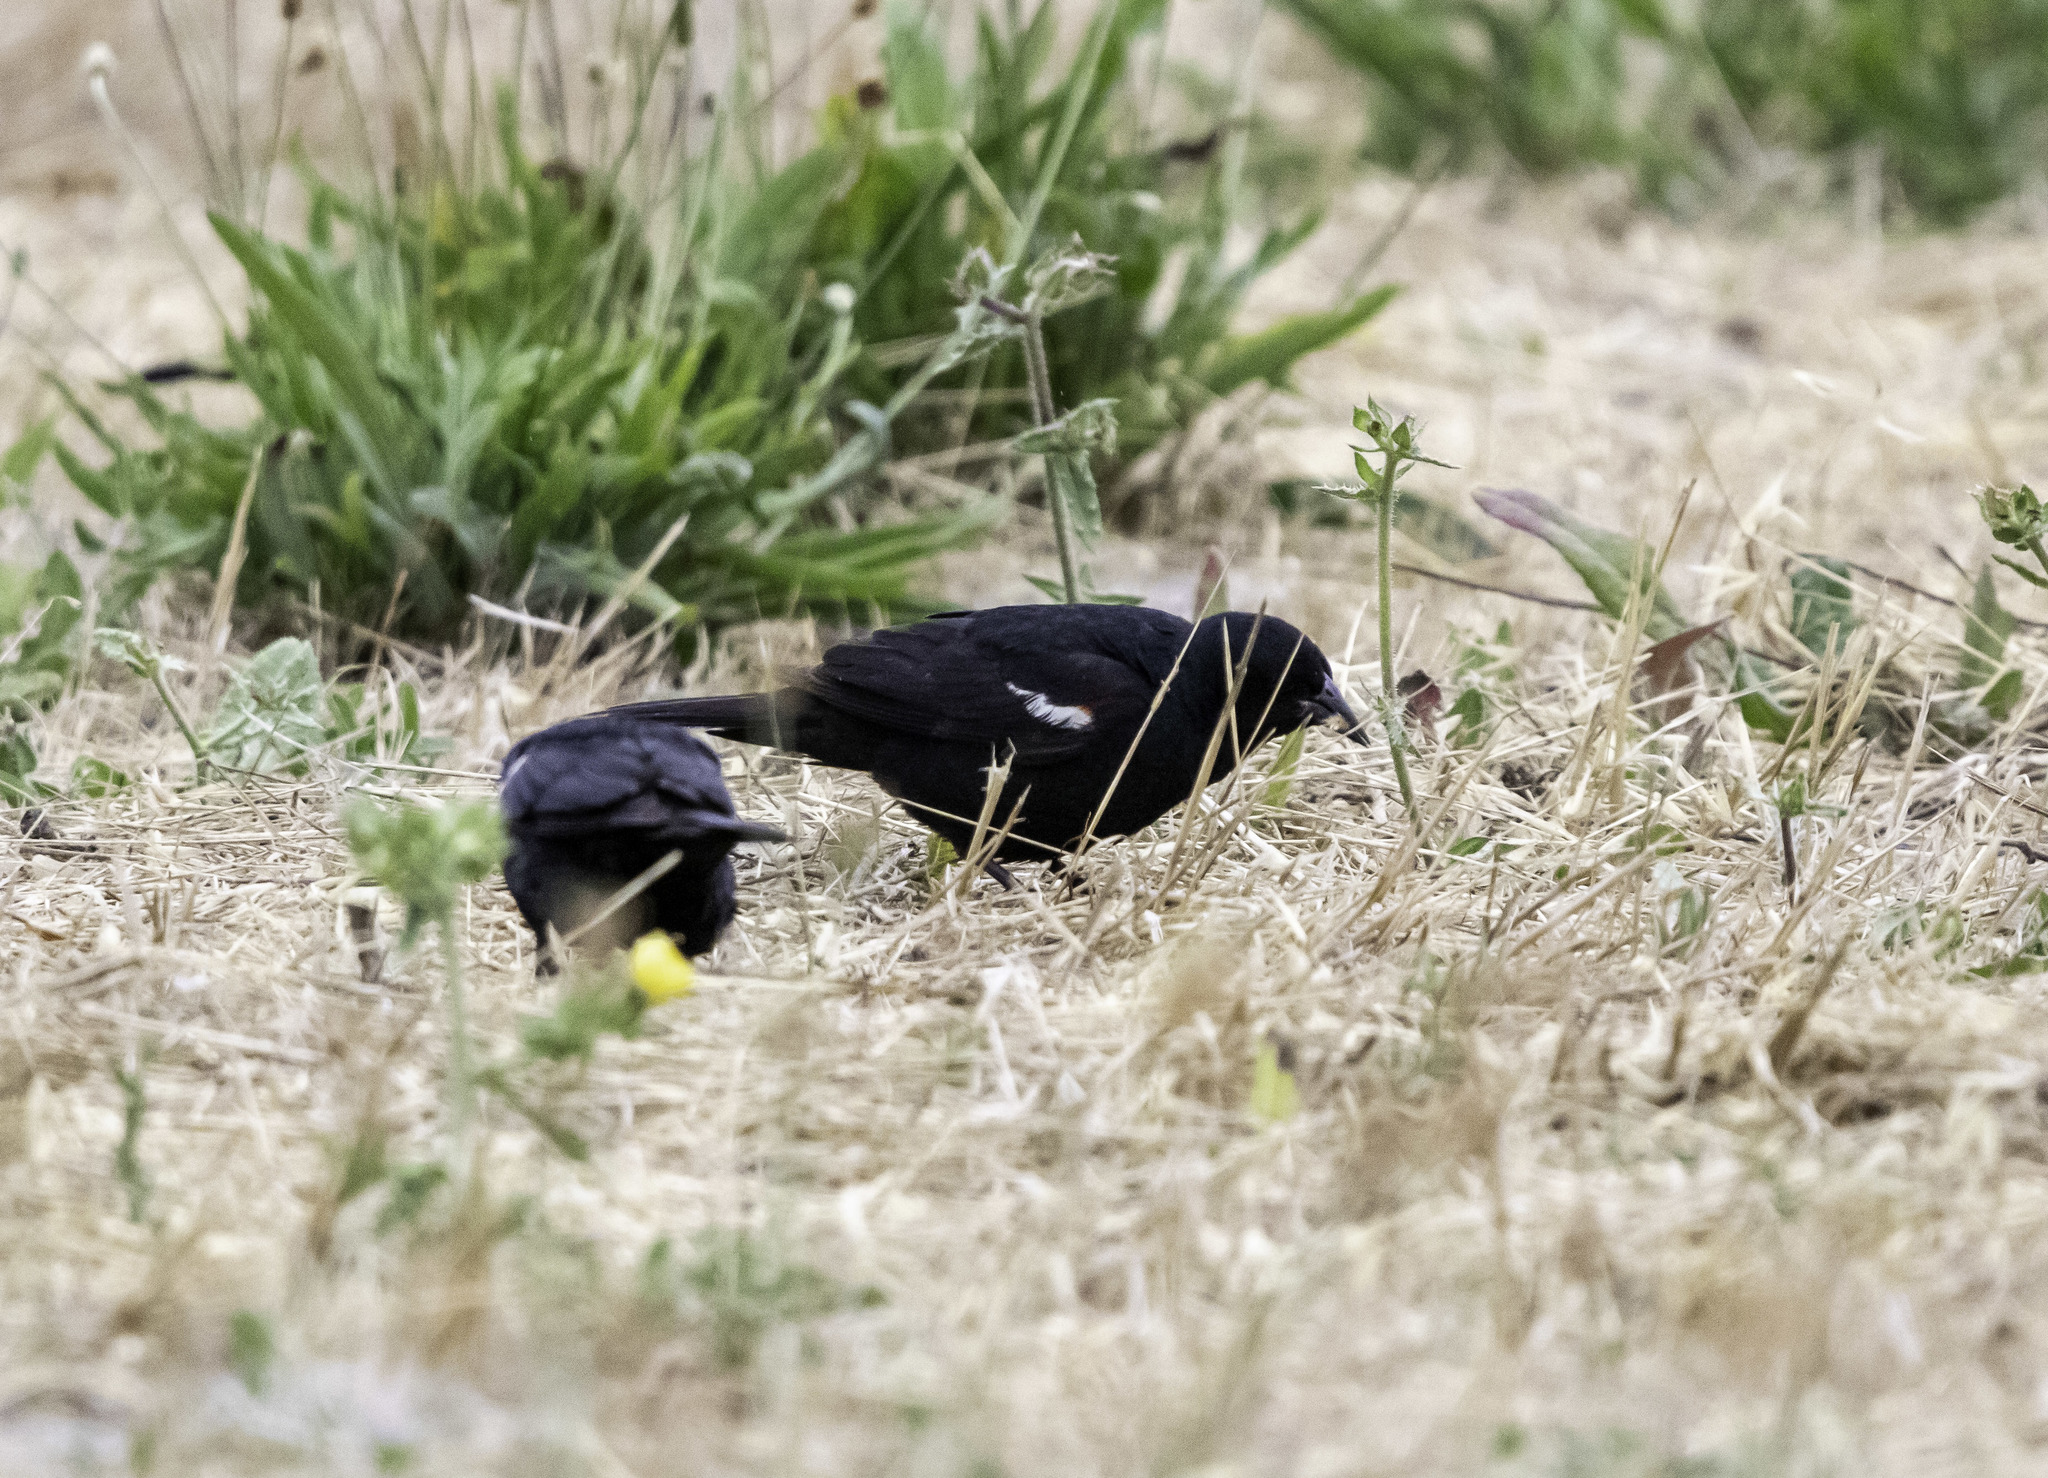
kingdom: Animalia
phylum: Chordata
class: Aves
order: Passeriformes
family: Icteridae
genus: Agelaius
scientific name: Agelaius tricolor
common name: Tricolored blackbird
